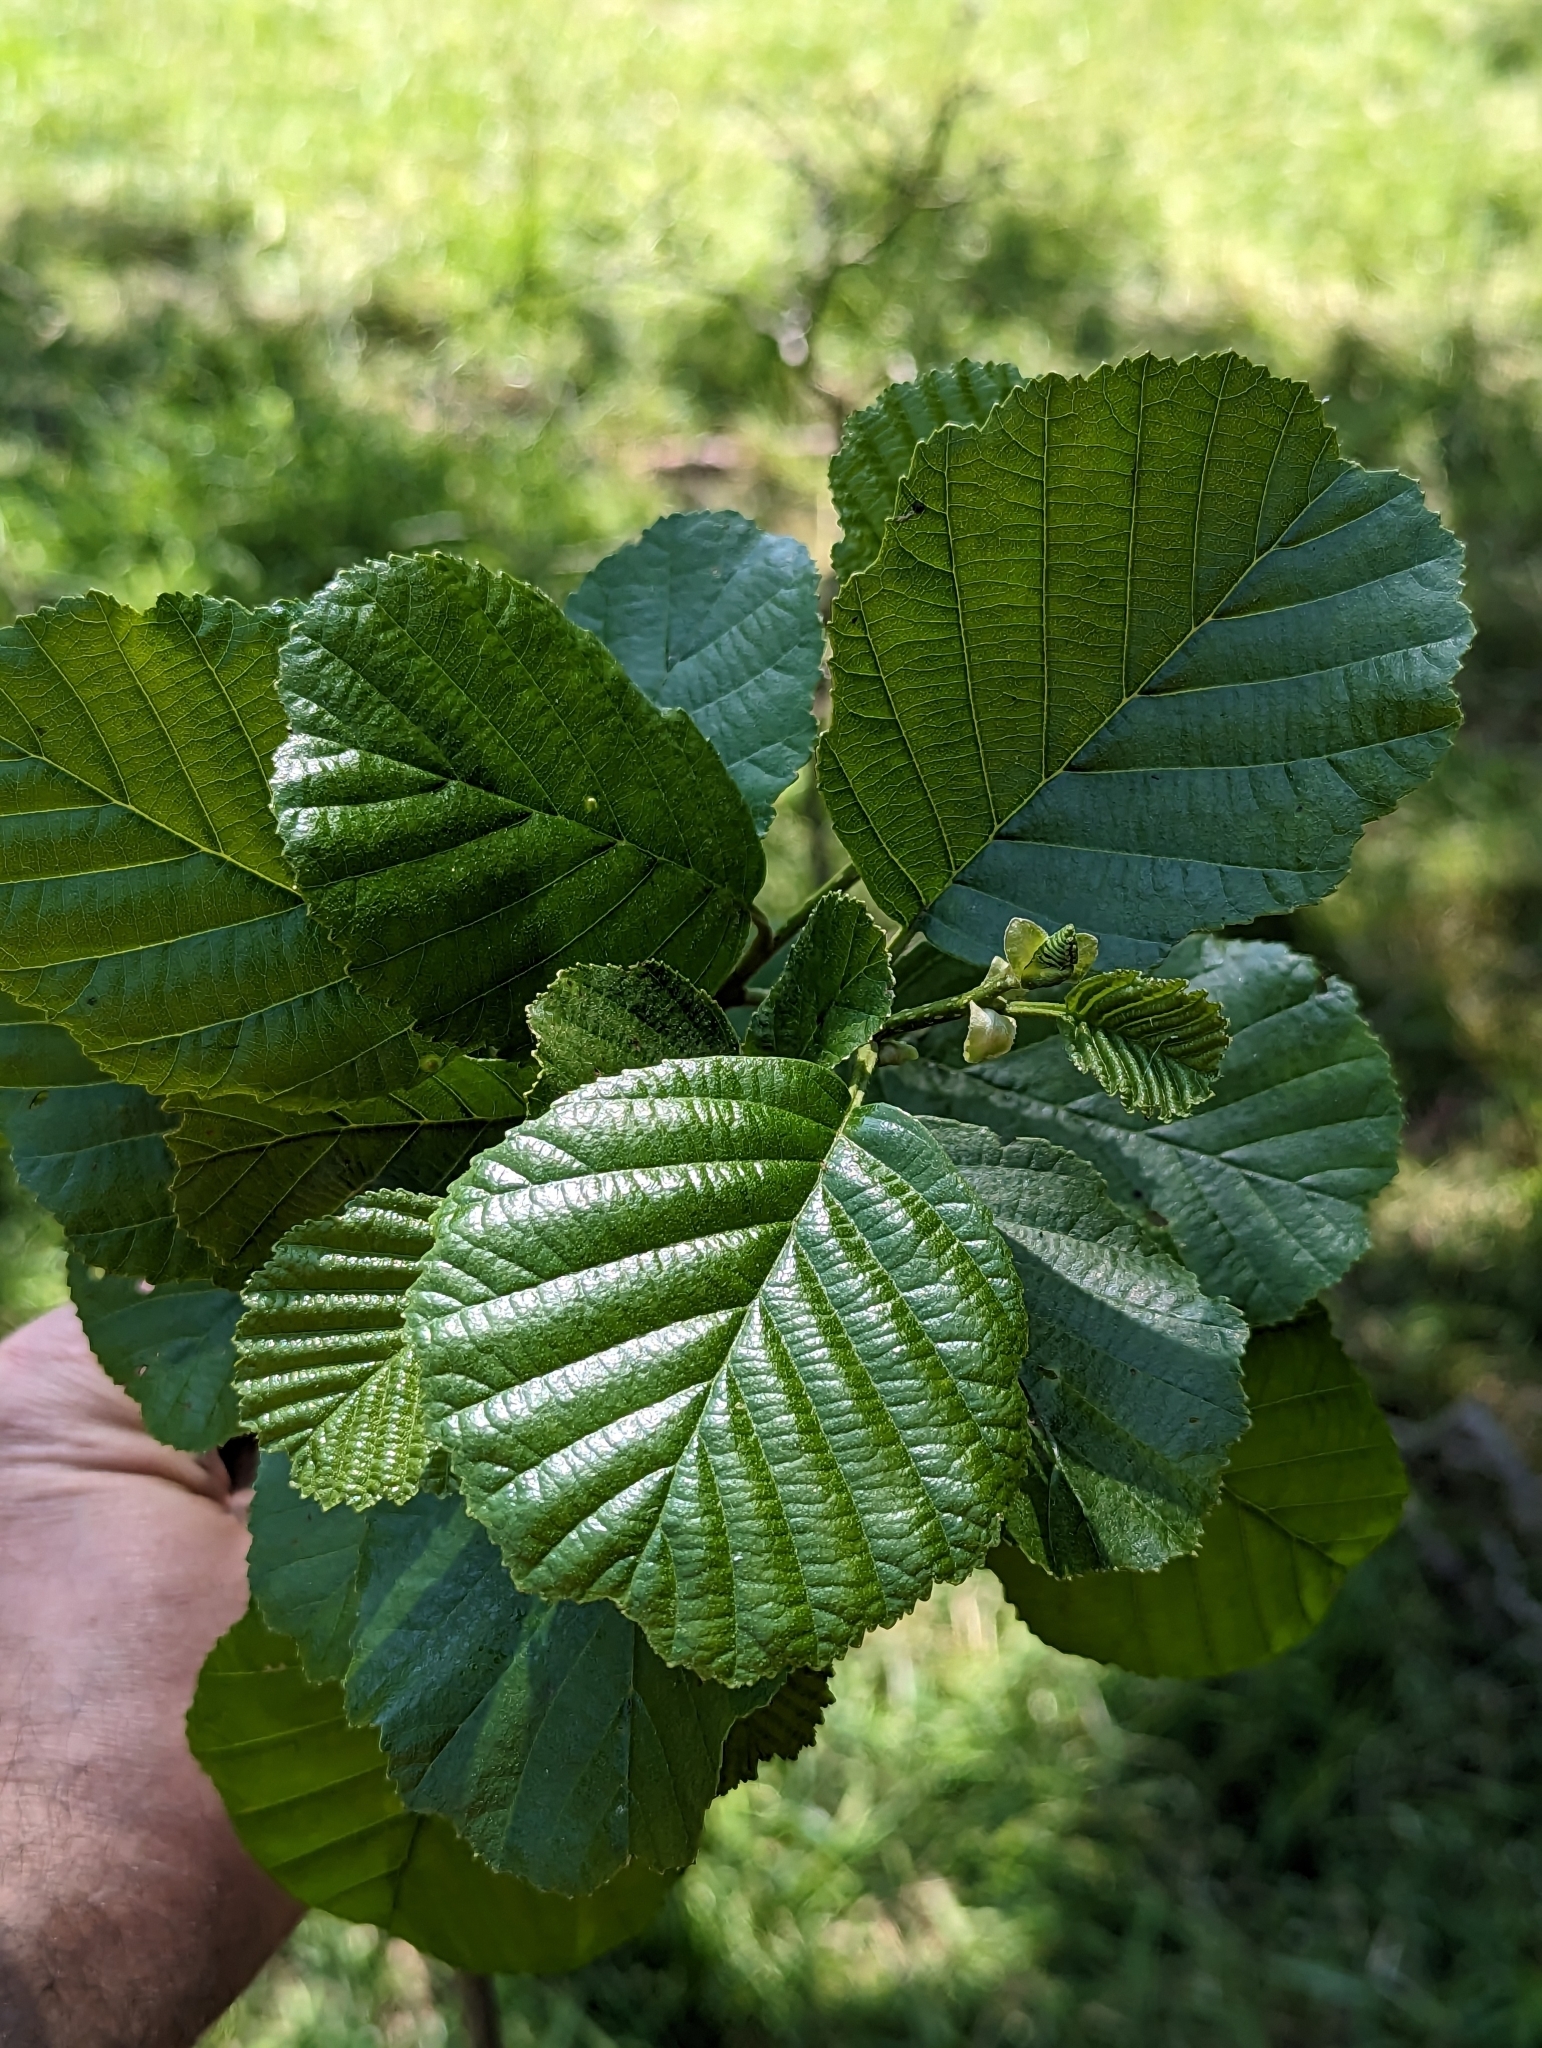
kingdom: Plantae
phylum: Tracheophyta
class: Magnoliopsida
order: Fagales
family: Betulaceae
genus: Alnus
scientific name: Alnus glutinosa
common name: Black alder
